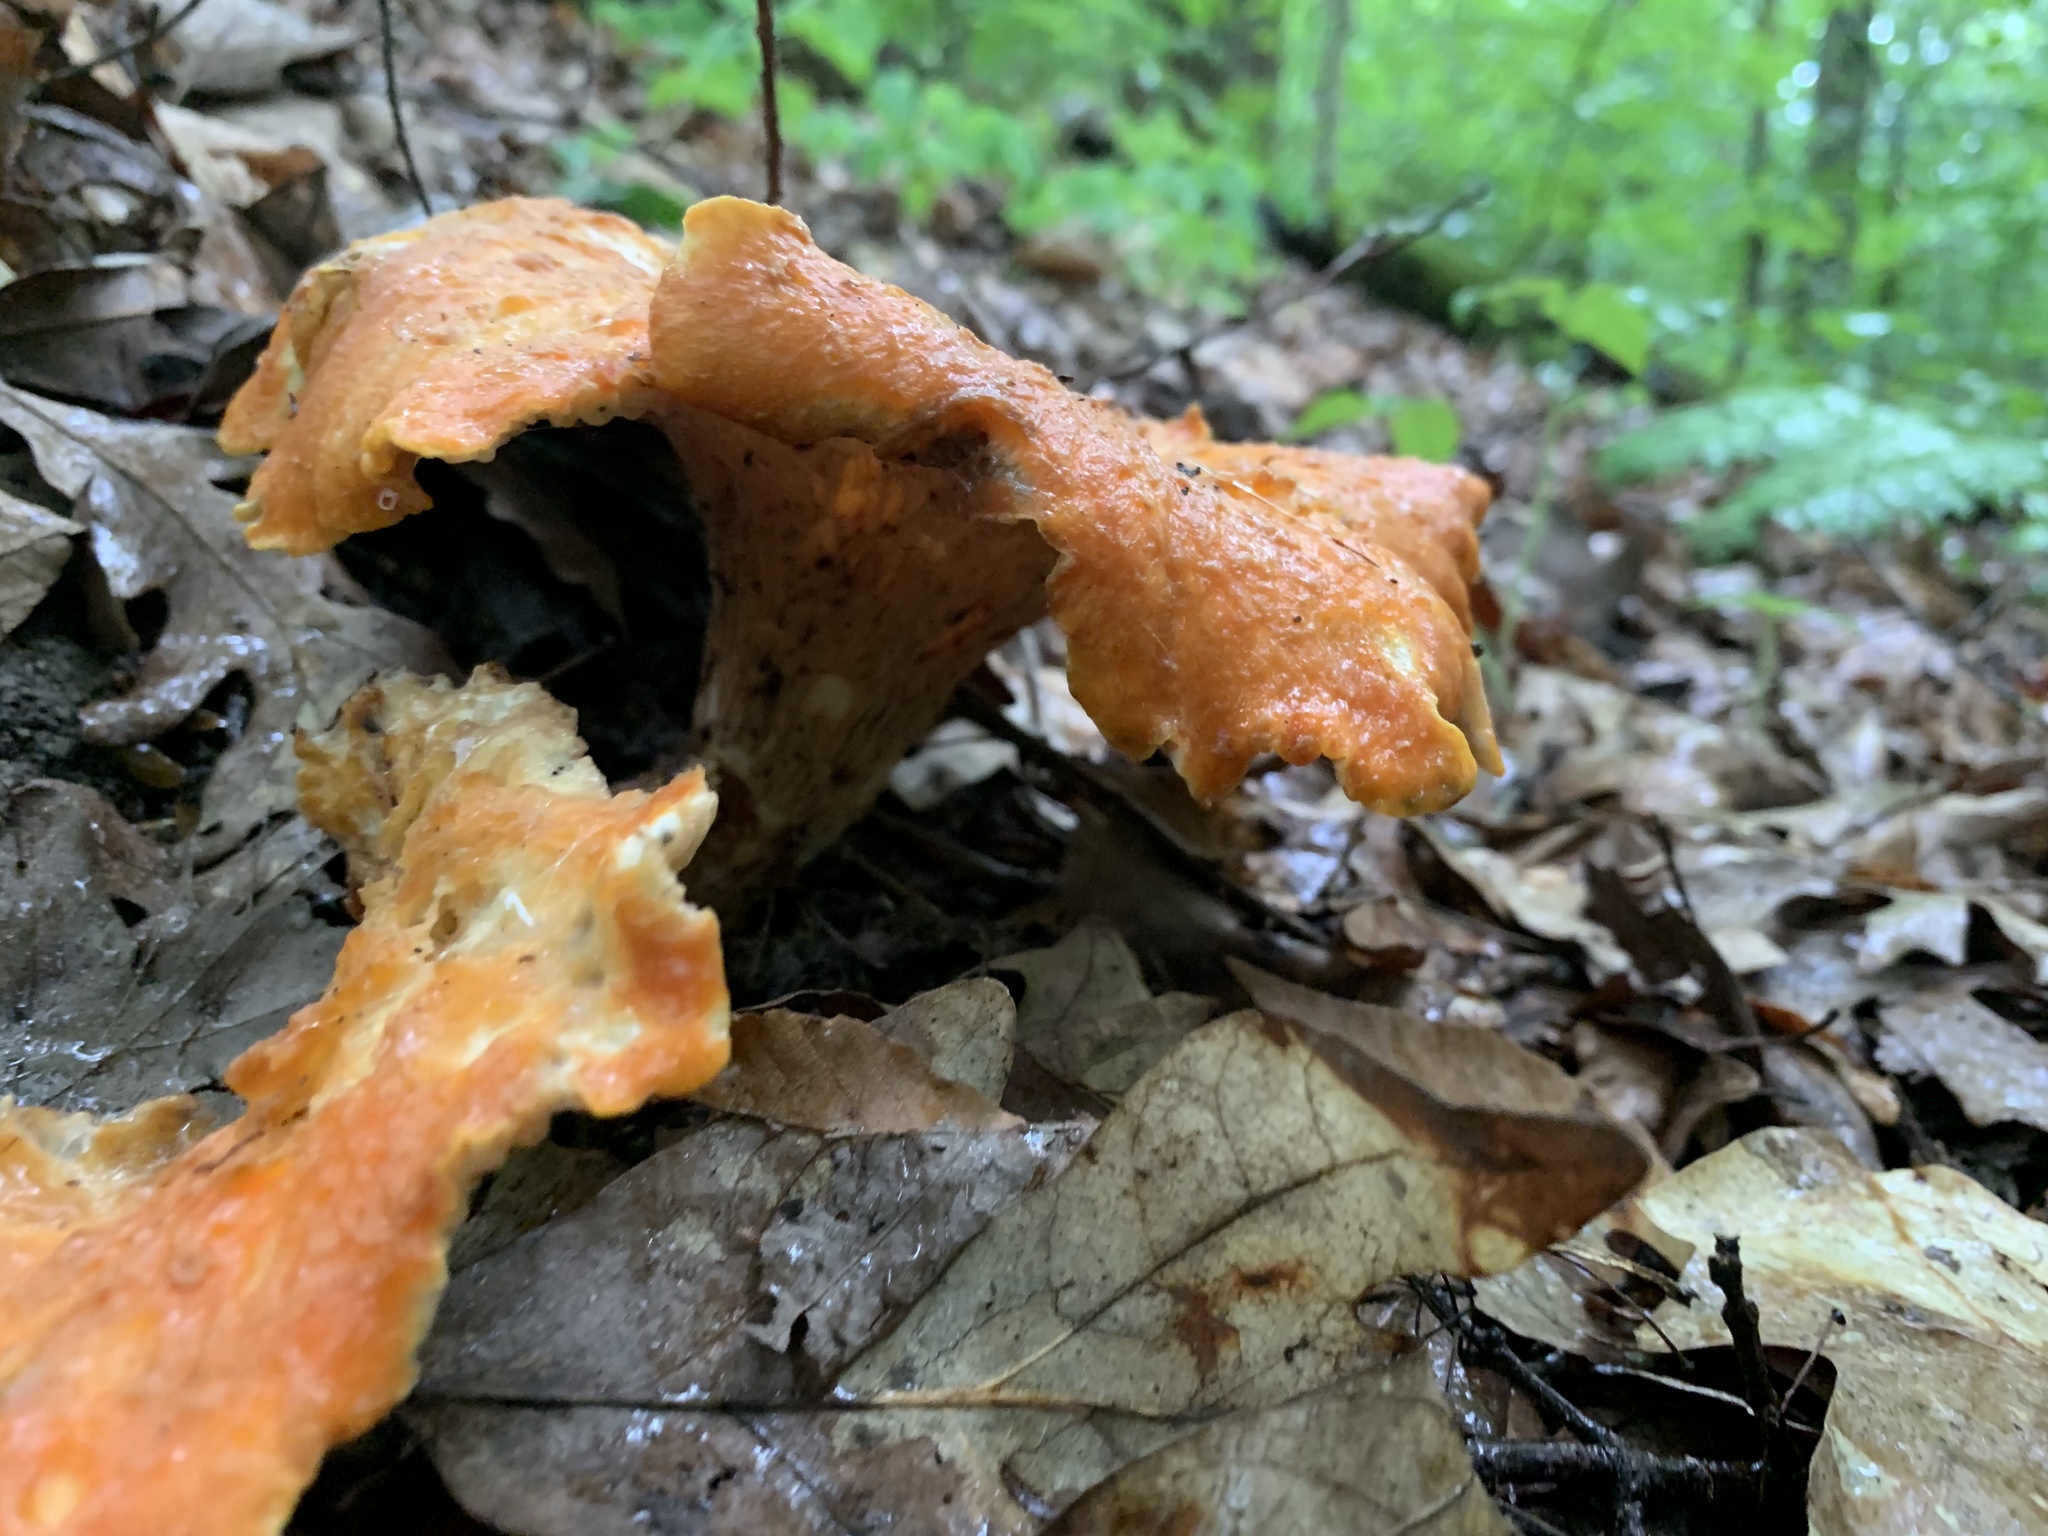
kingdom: Fungi
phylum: Basidiomycota
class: Agaricomycetes
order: Gomphales
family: Gomphaceae
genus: Turbinellus
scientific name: Turbinellus floccosus
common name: Scaly chanterelle
